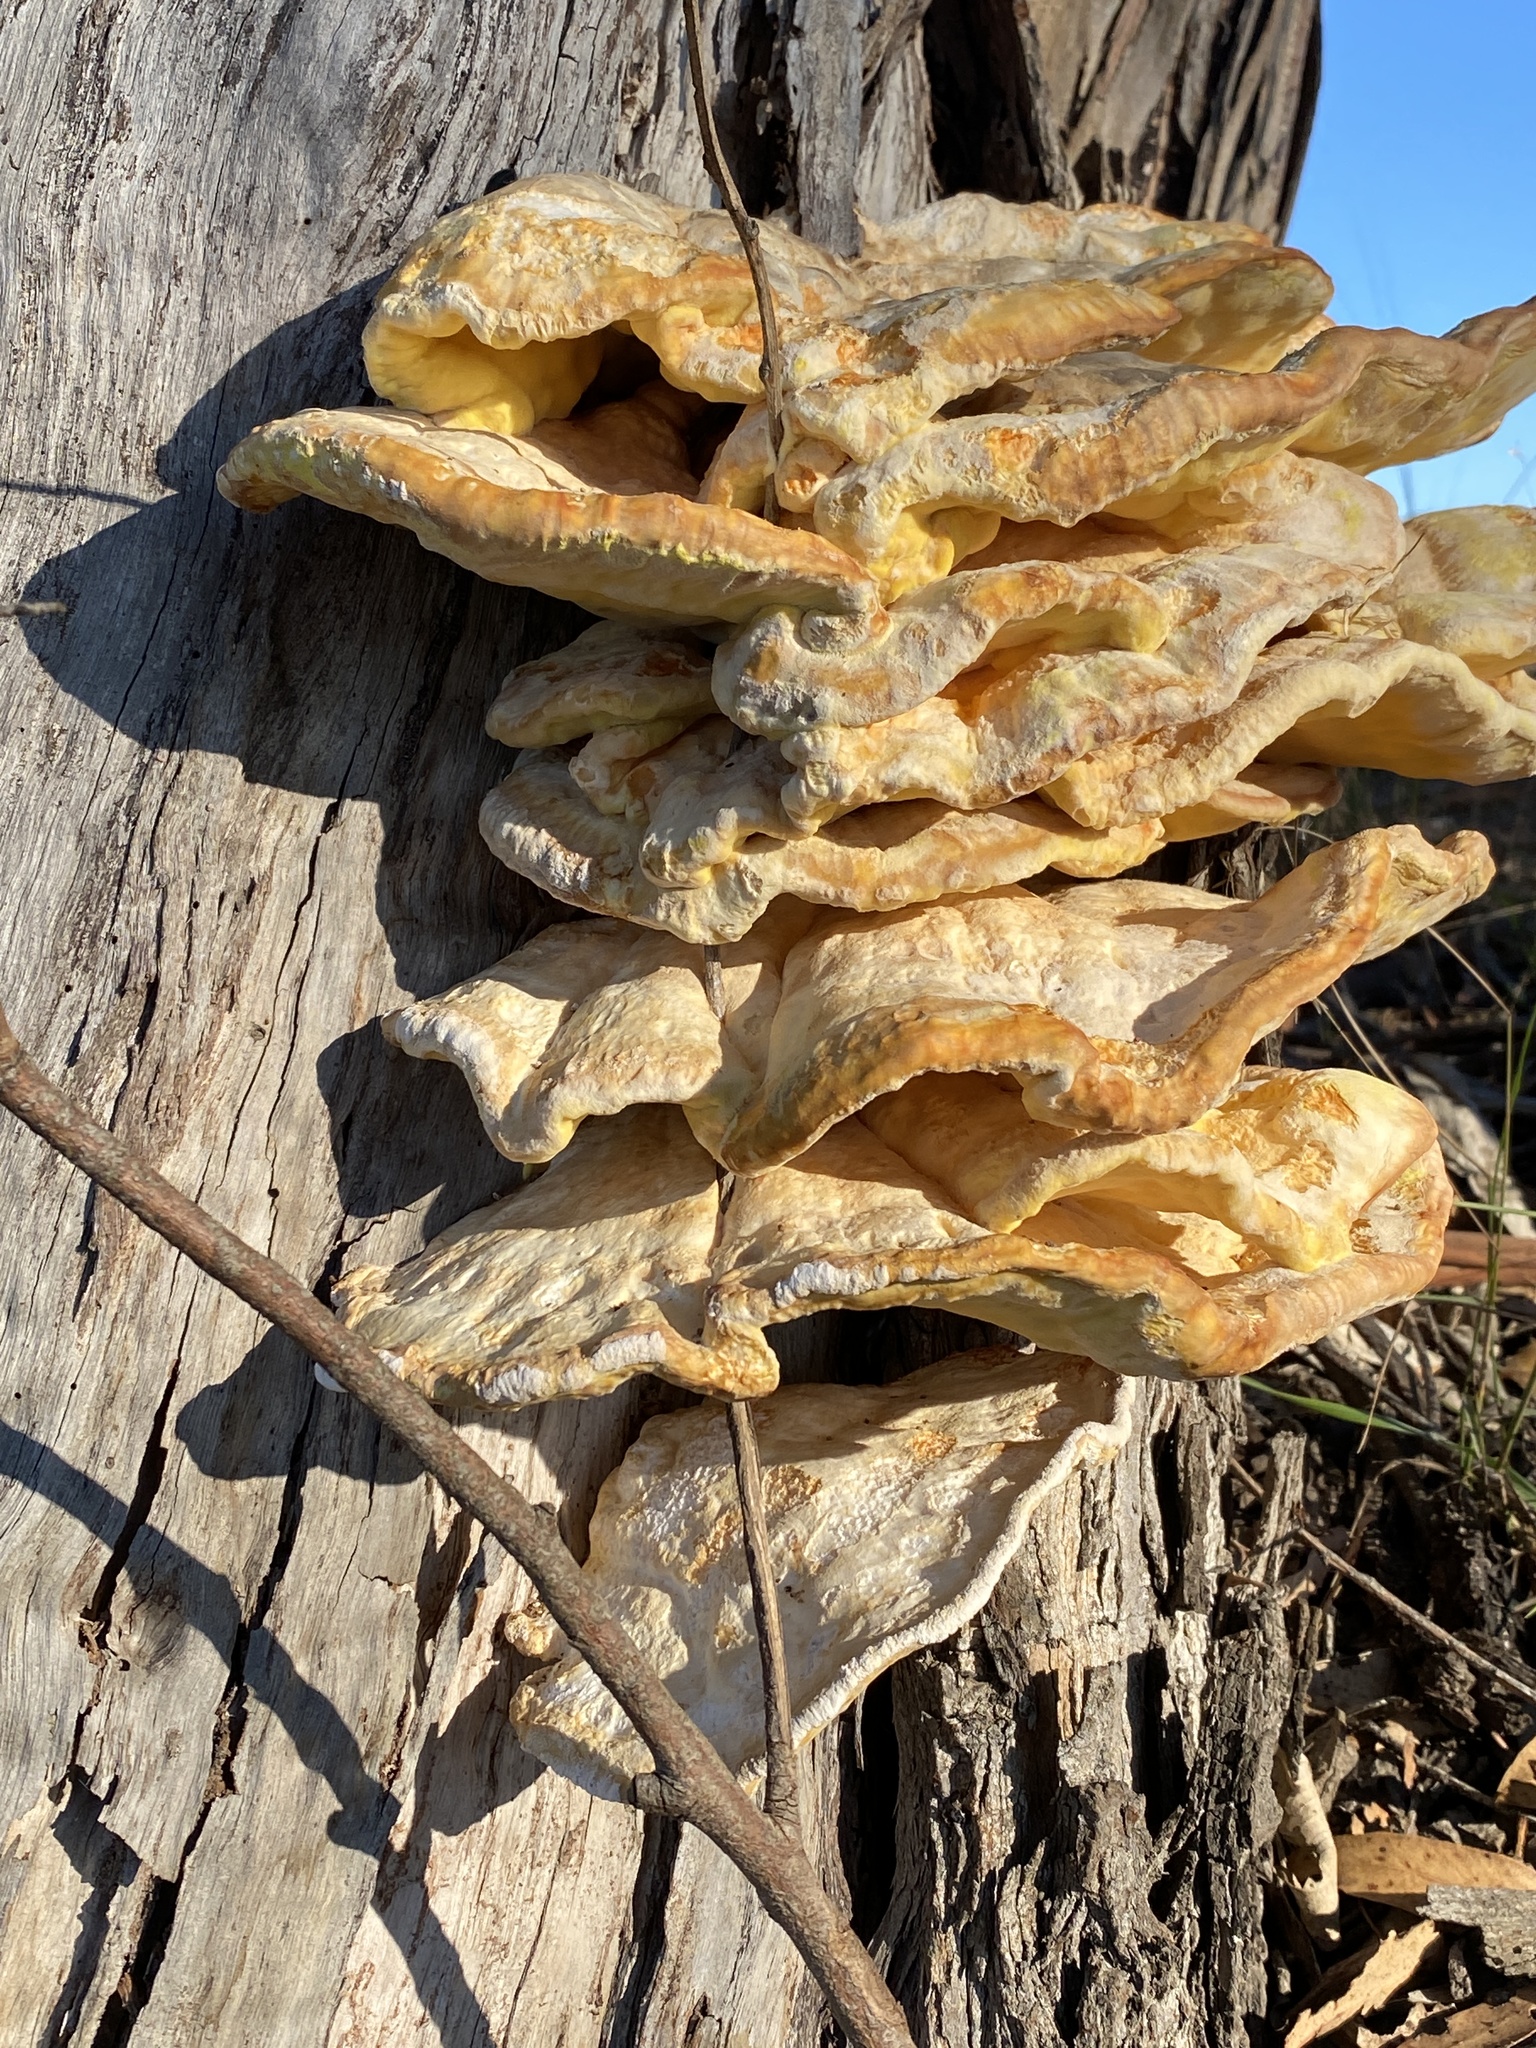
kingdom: Fungi
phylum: Basidiomycota
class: Agaricomycetes
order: Polyporales
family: Laetiporaceae
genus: Laetiporus
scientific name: Laetiporus gilbertsonii
